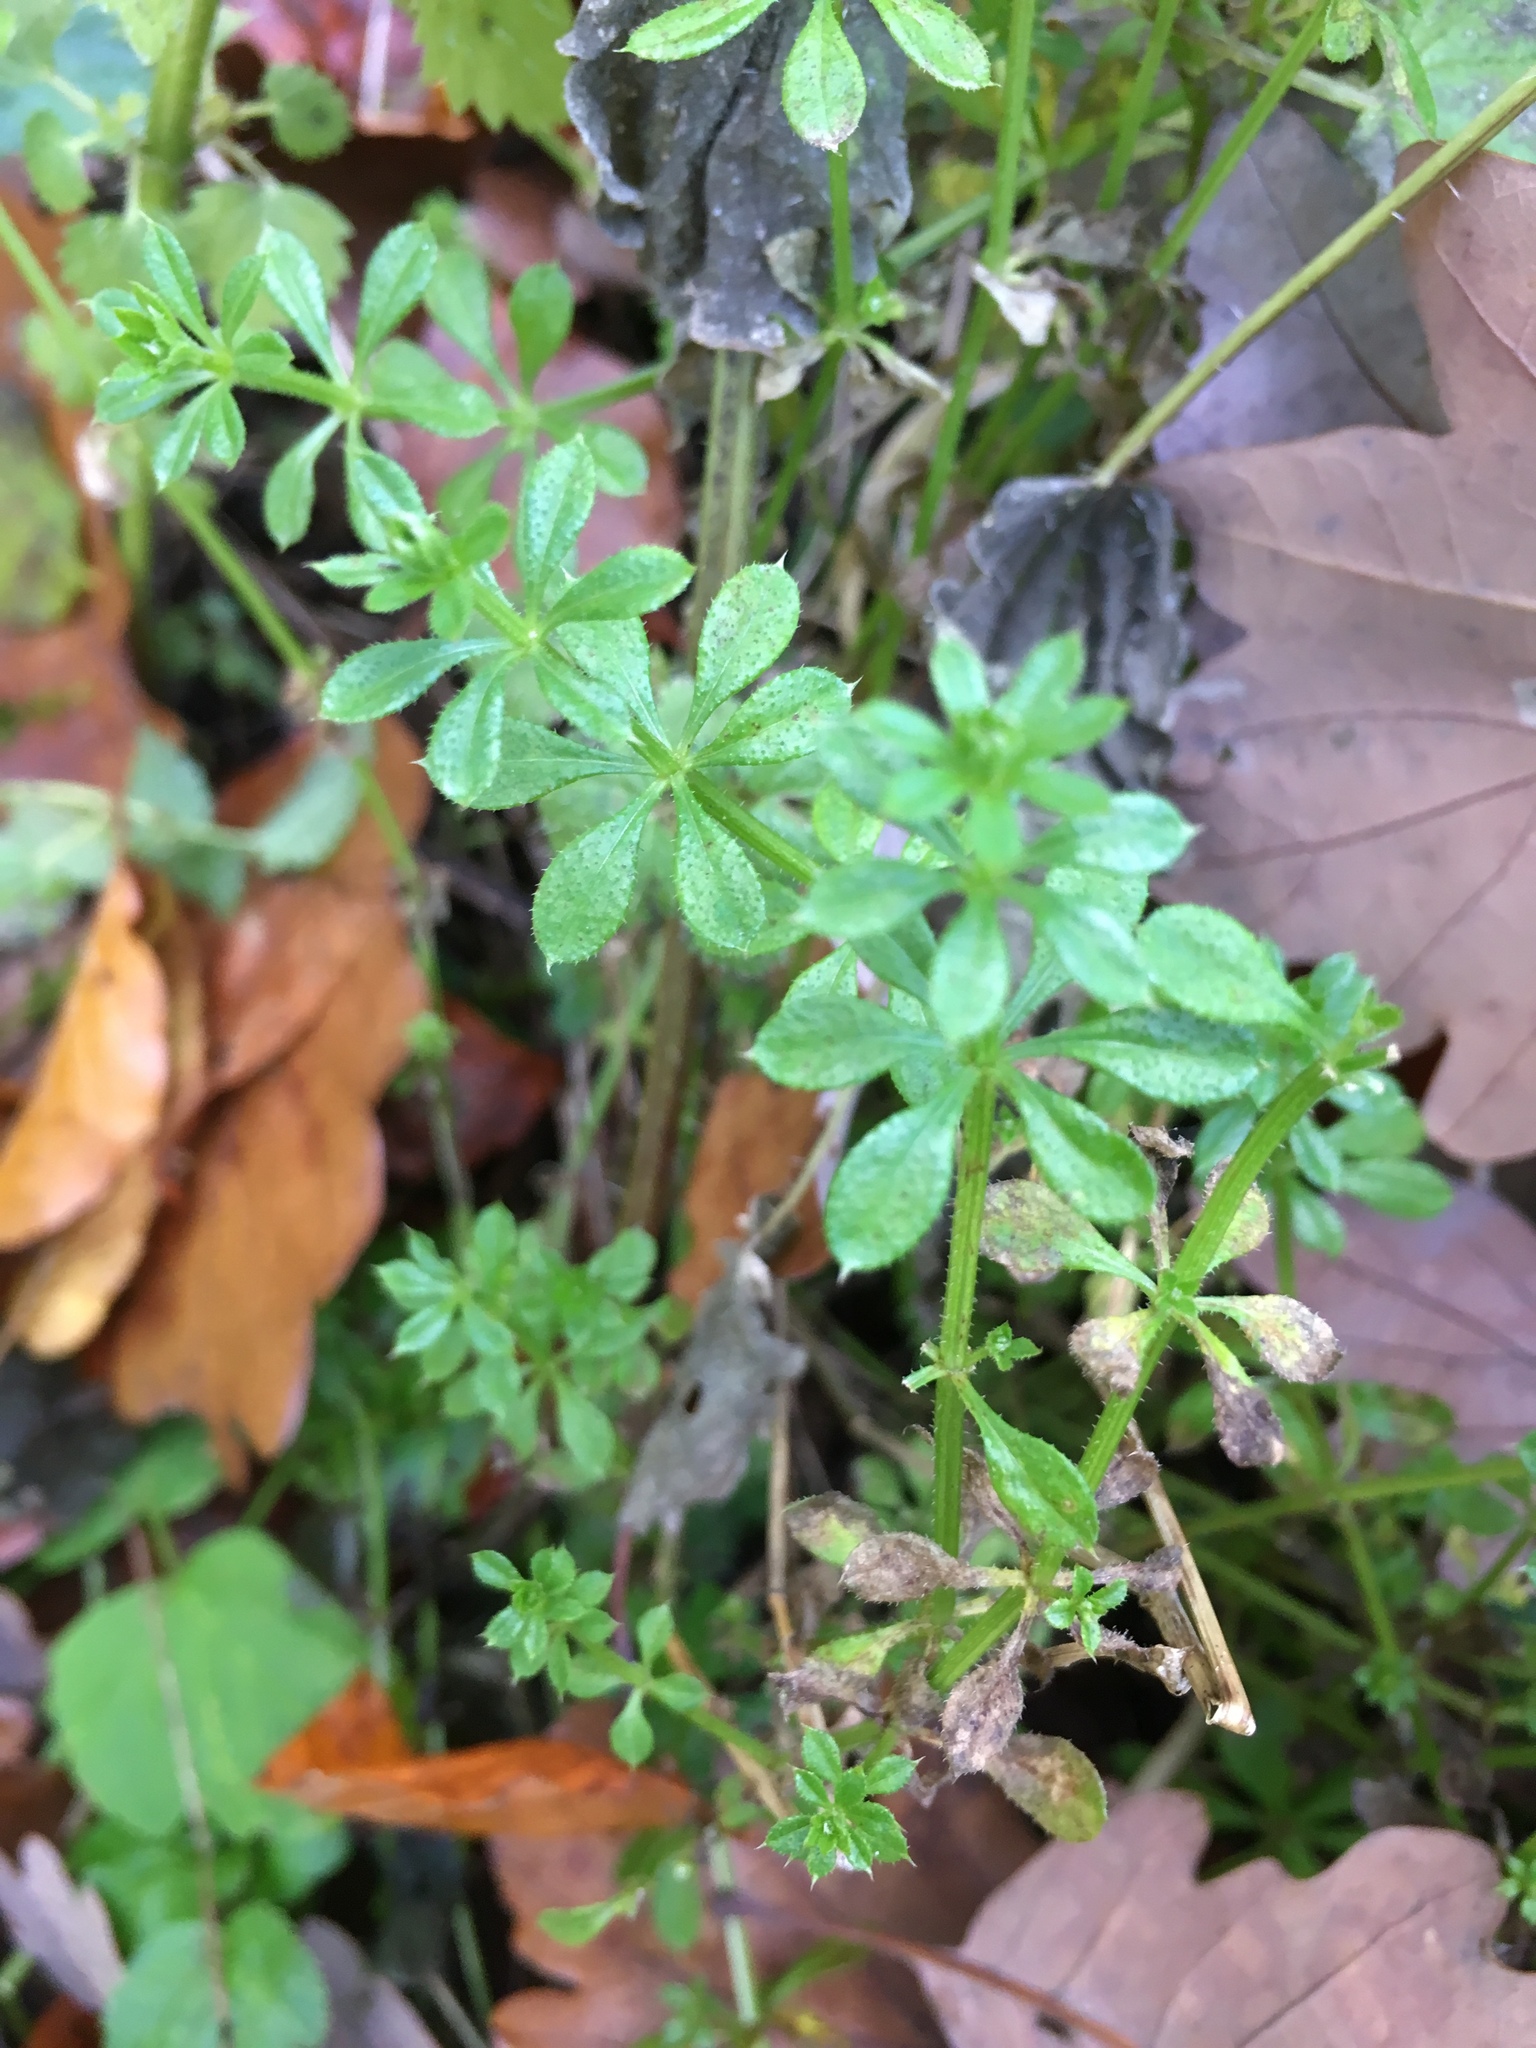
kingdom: Plantae
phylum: Tracheophyta
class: Magnoliopsida
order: Gentianales
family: Rubiaceae
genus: Galium
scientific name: Galium aparine
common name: Cleavers
